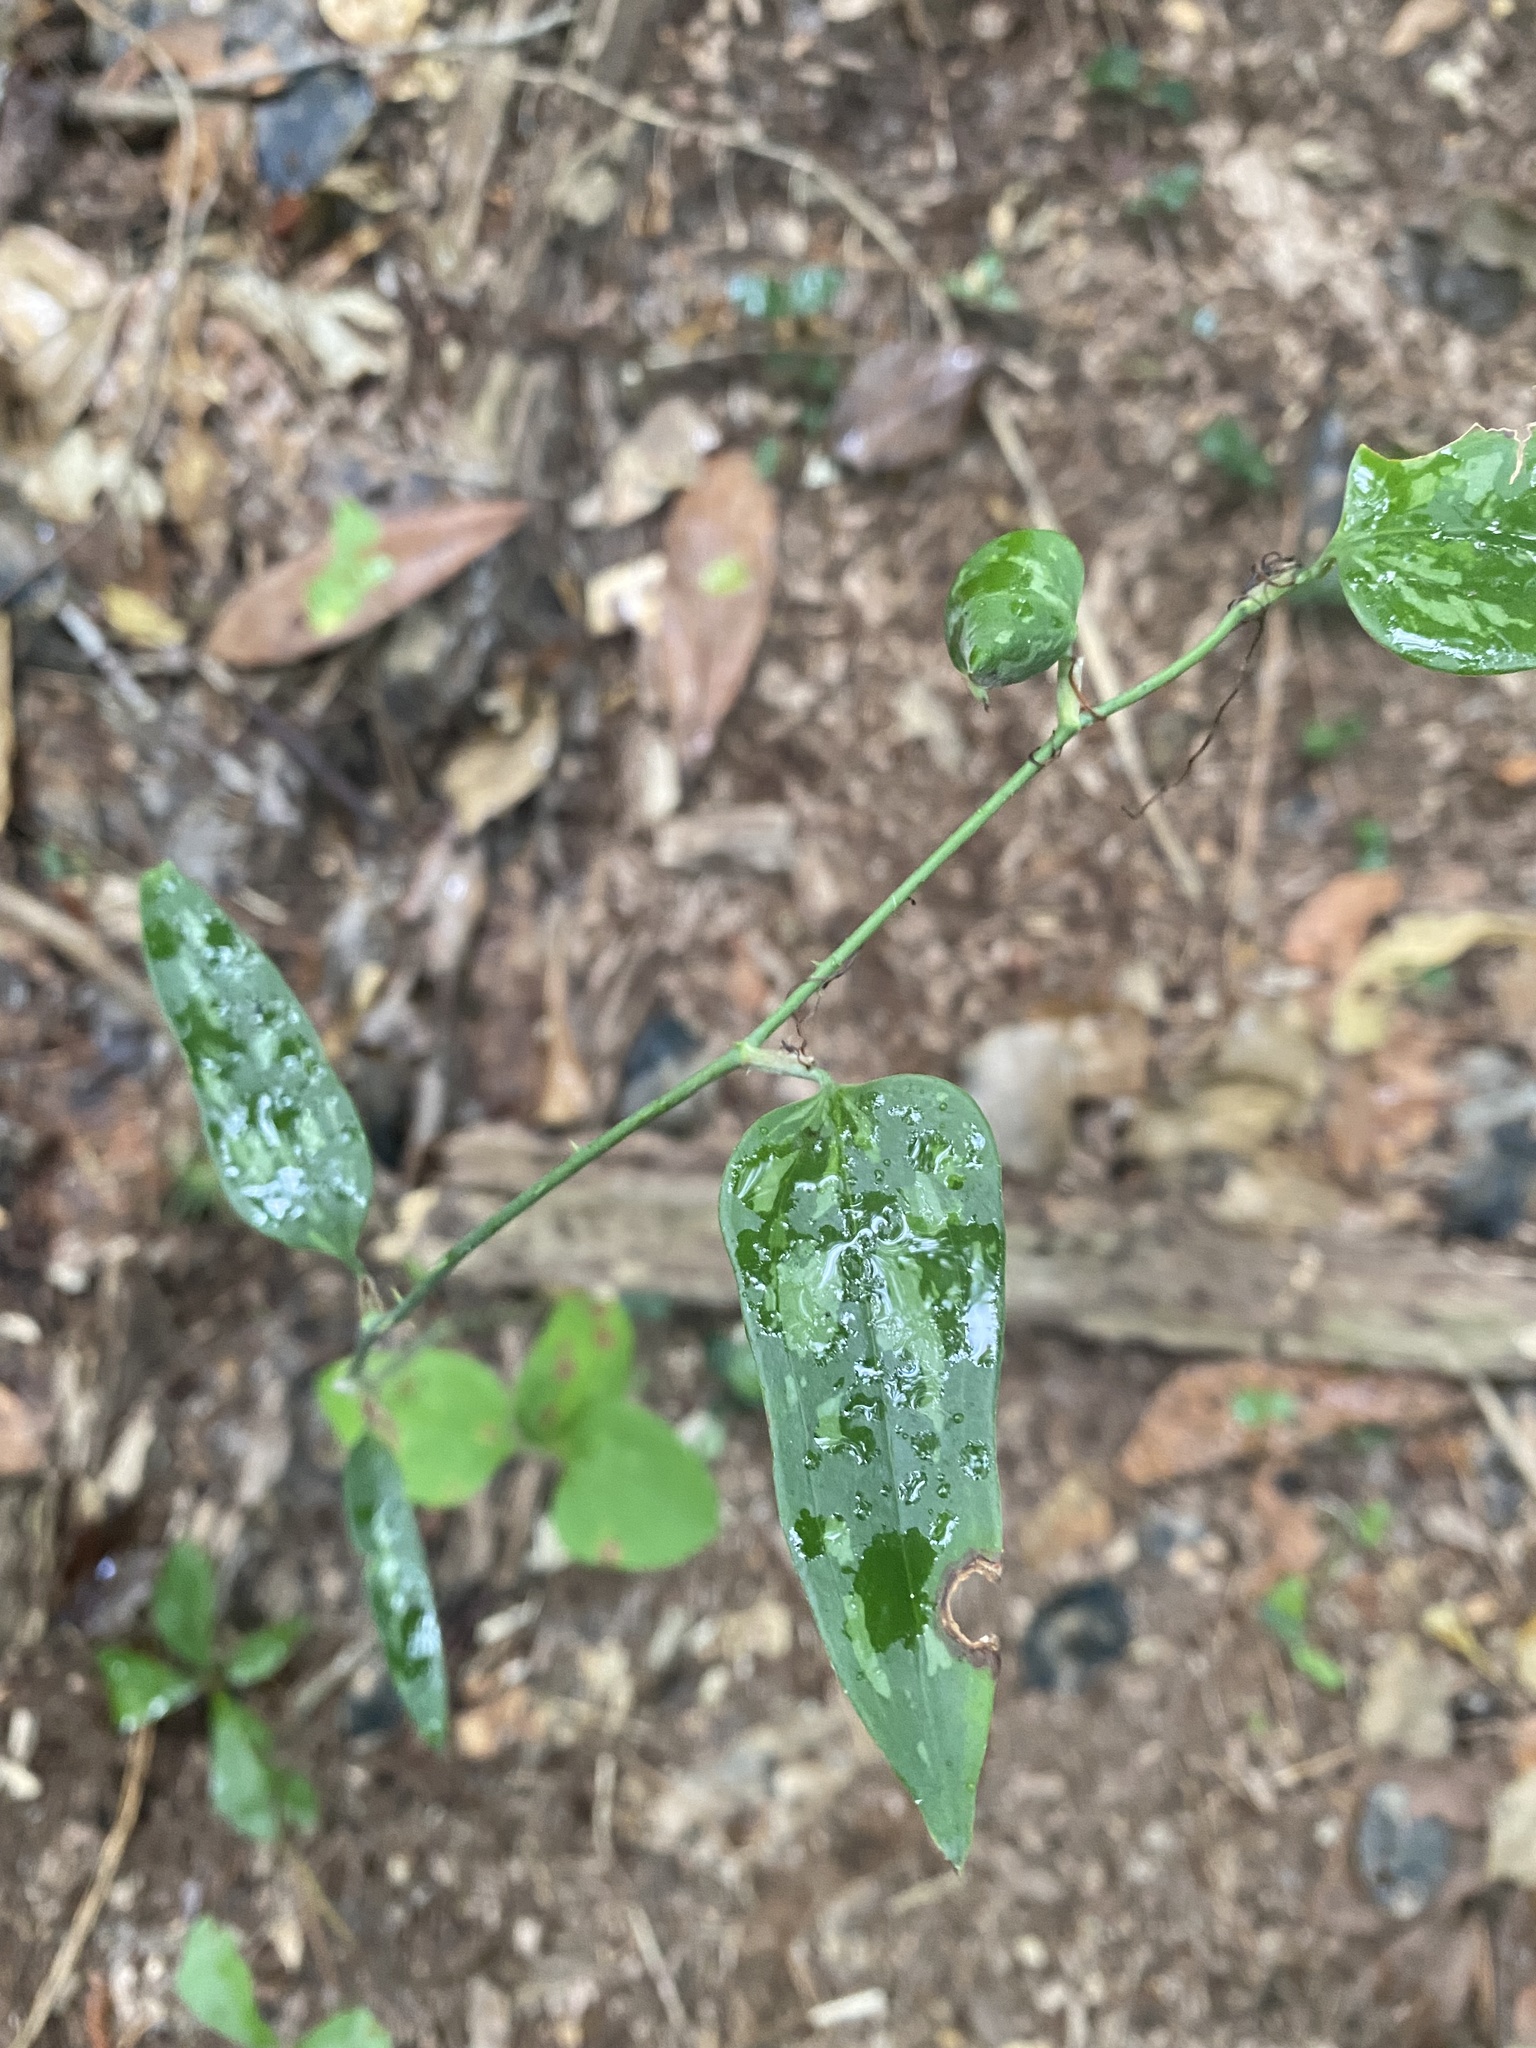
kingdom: Plantae
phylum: Tracheophyta
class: Liliopsida
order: Liliales
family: Smilacaceae
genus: Smilax
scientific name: Smilax glauca
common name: Cat greenbrier
